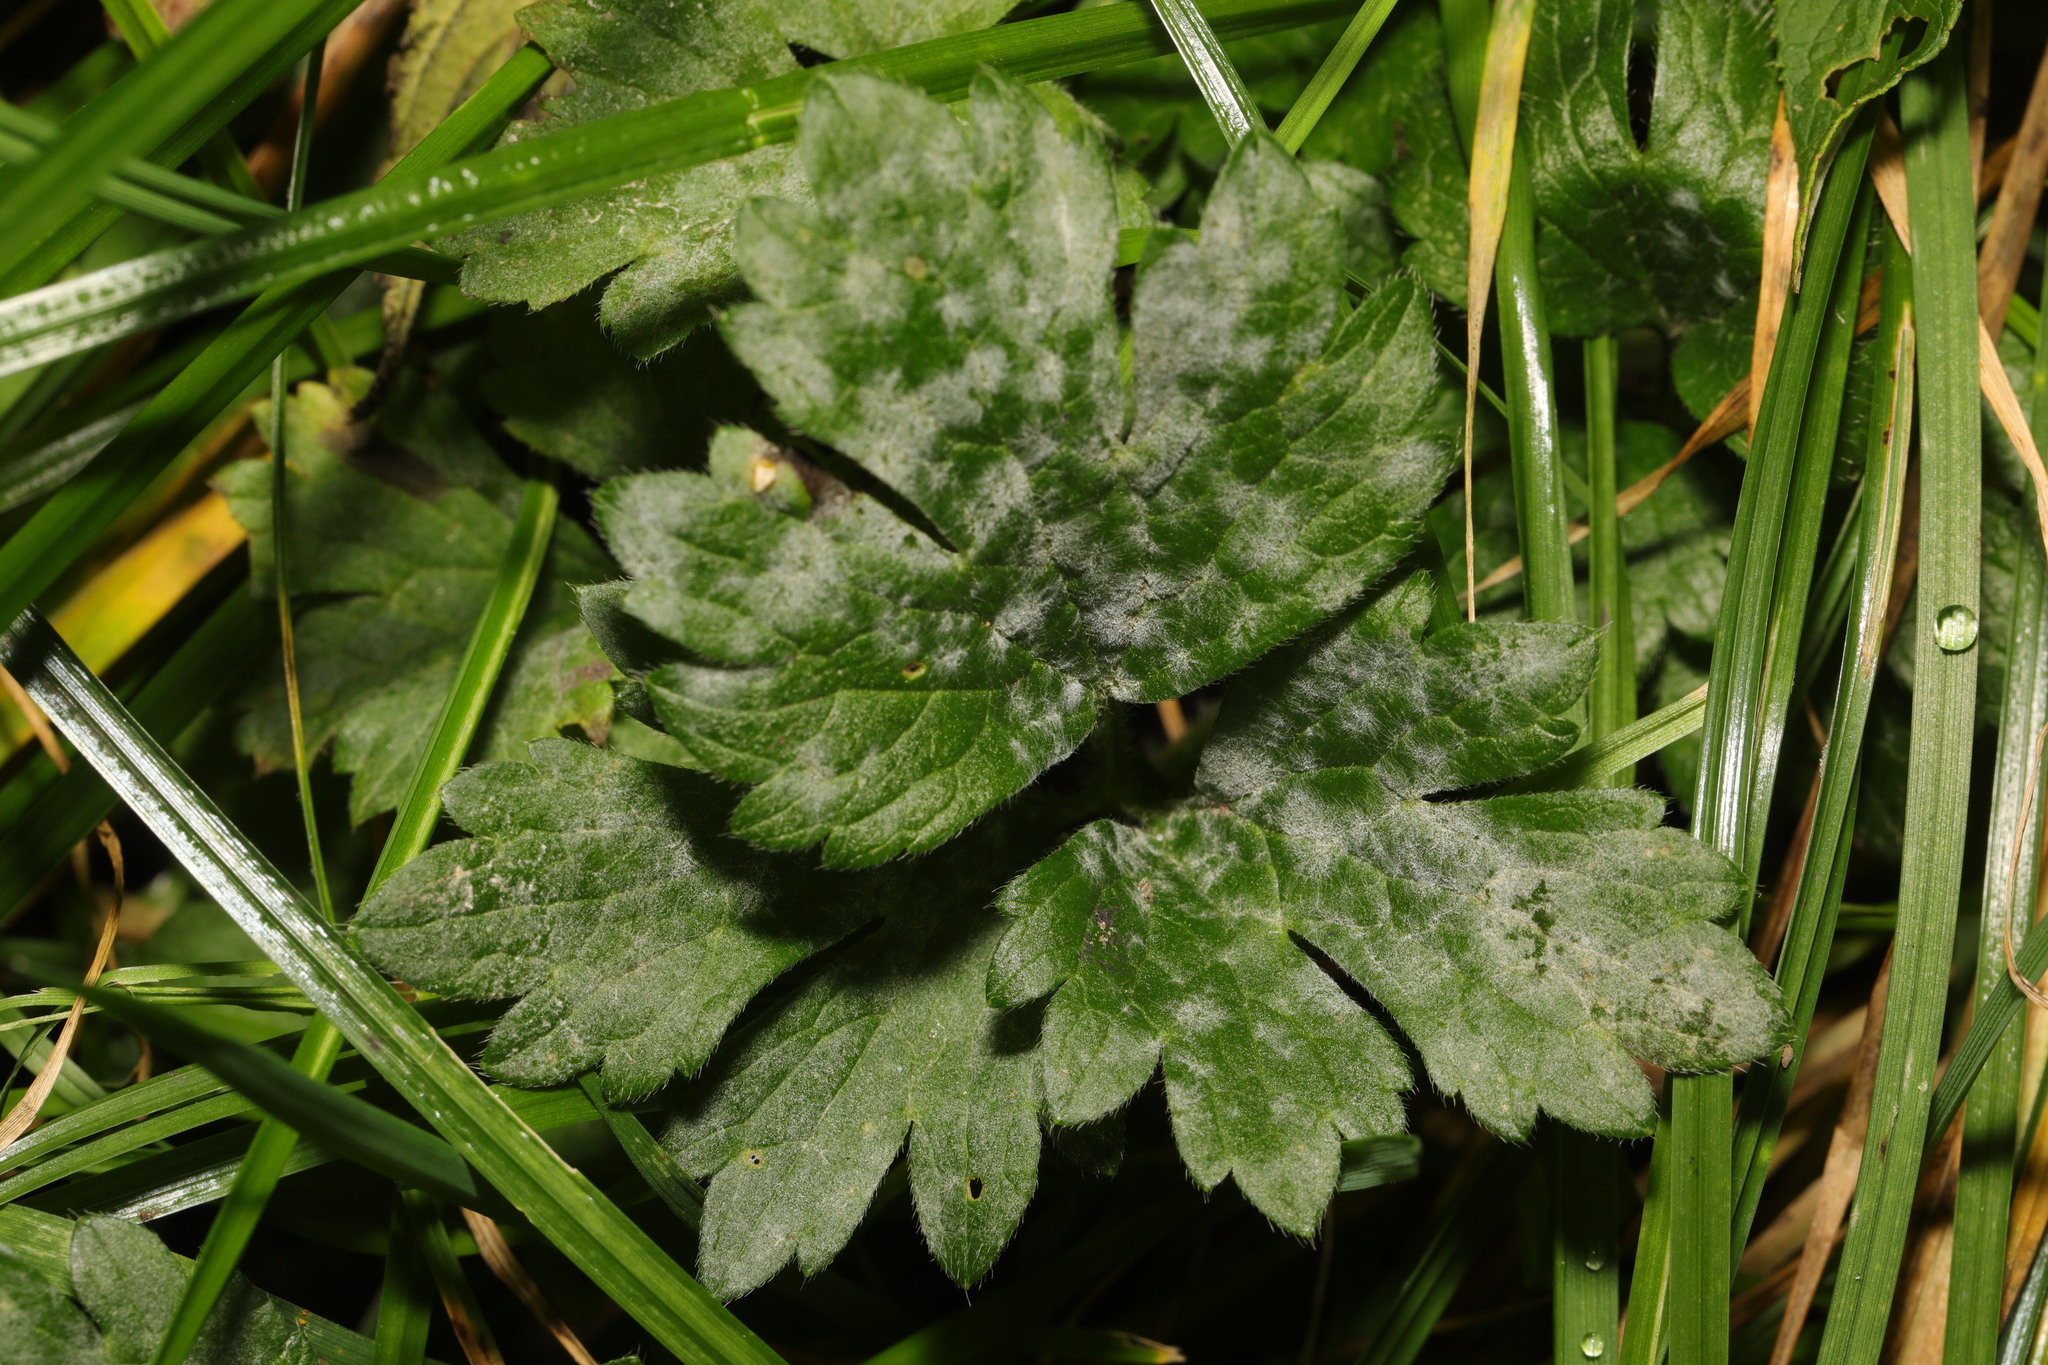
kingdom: Fungi
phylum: Ascomycota
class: Leotiomycetes
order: Helotiales
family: Erysiphaceae
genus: Erysiphe
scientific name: Erysiphe aquilegiae
